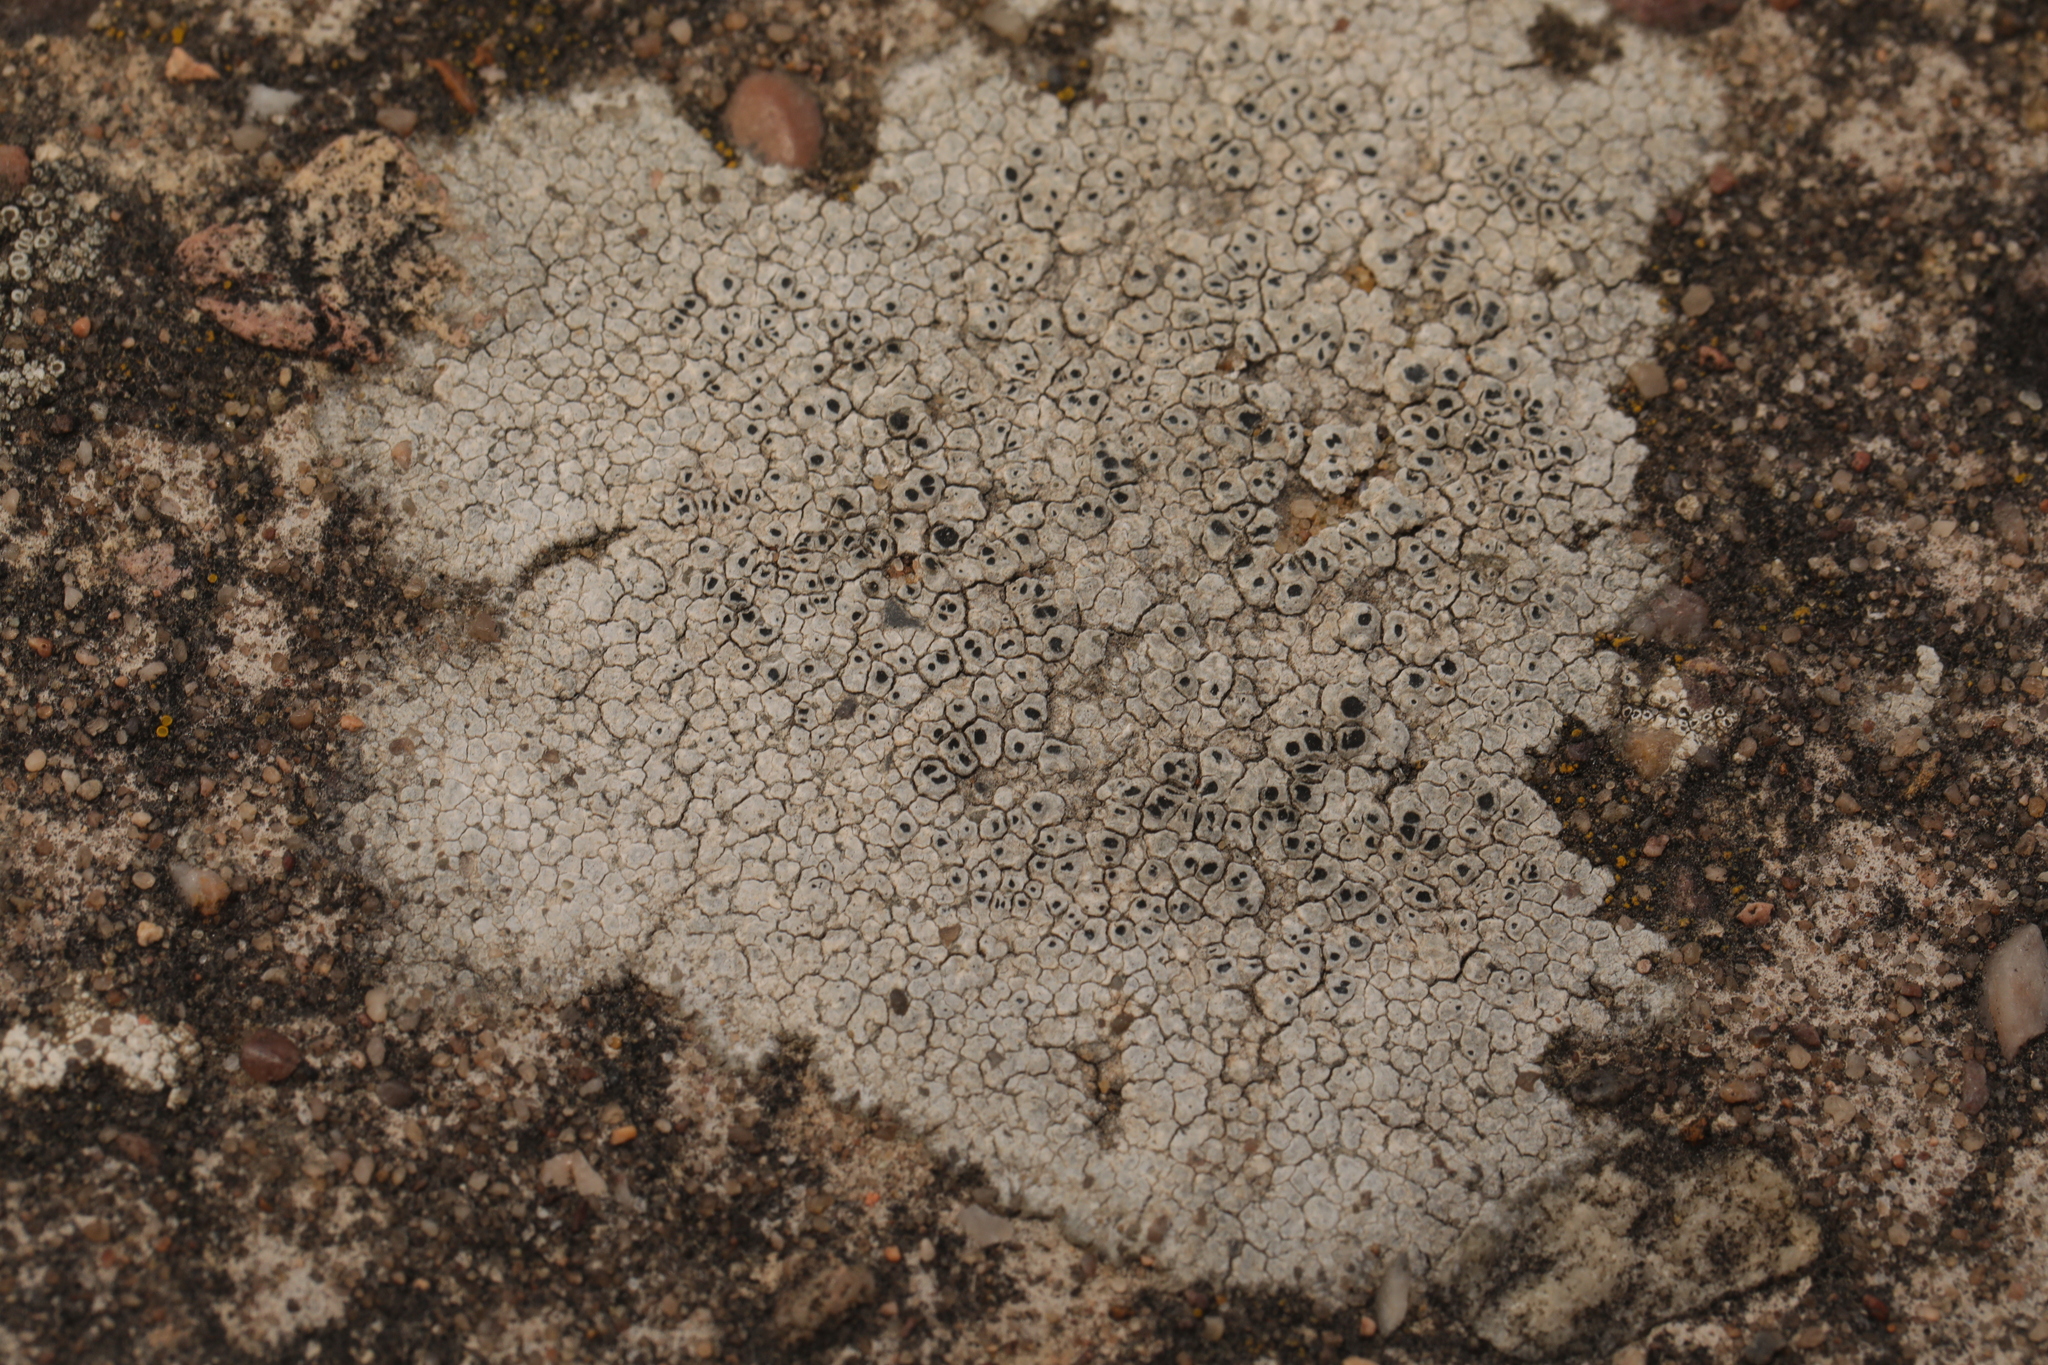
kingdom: Fungi
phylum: Ascomycota
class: Lecanoromycetes
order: Pertusariales
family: Megasporaceae
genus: Circinaria
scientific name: Circinaria hoffmanniana
